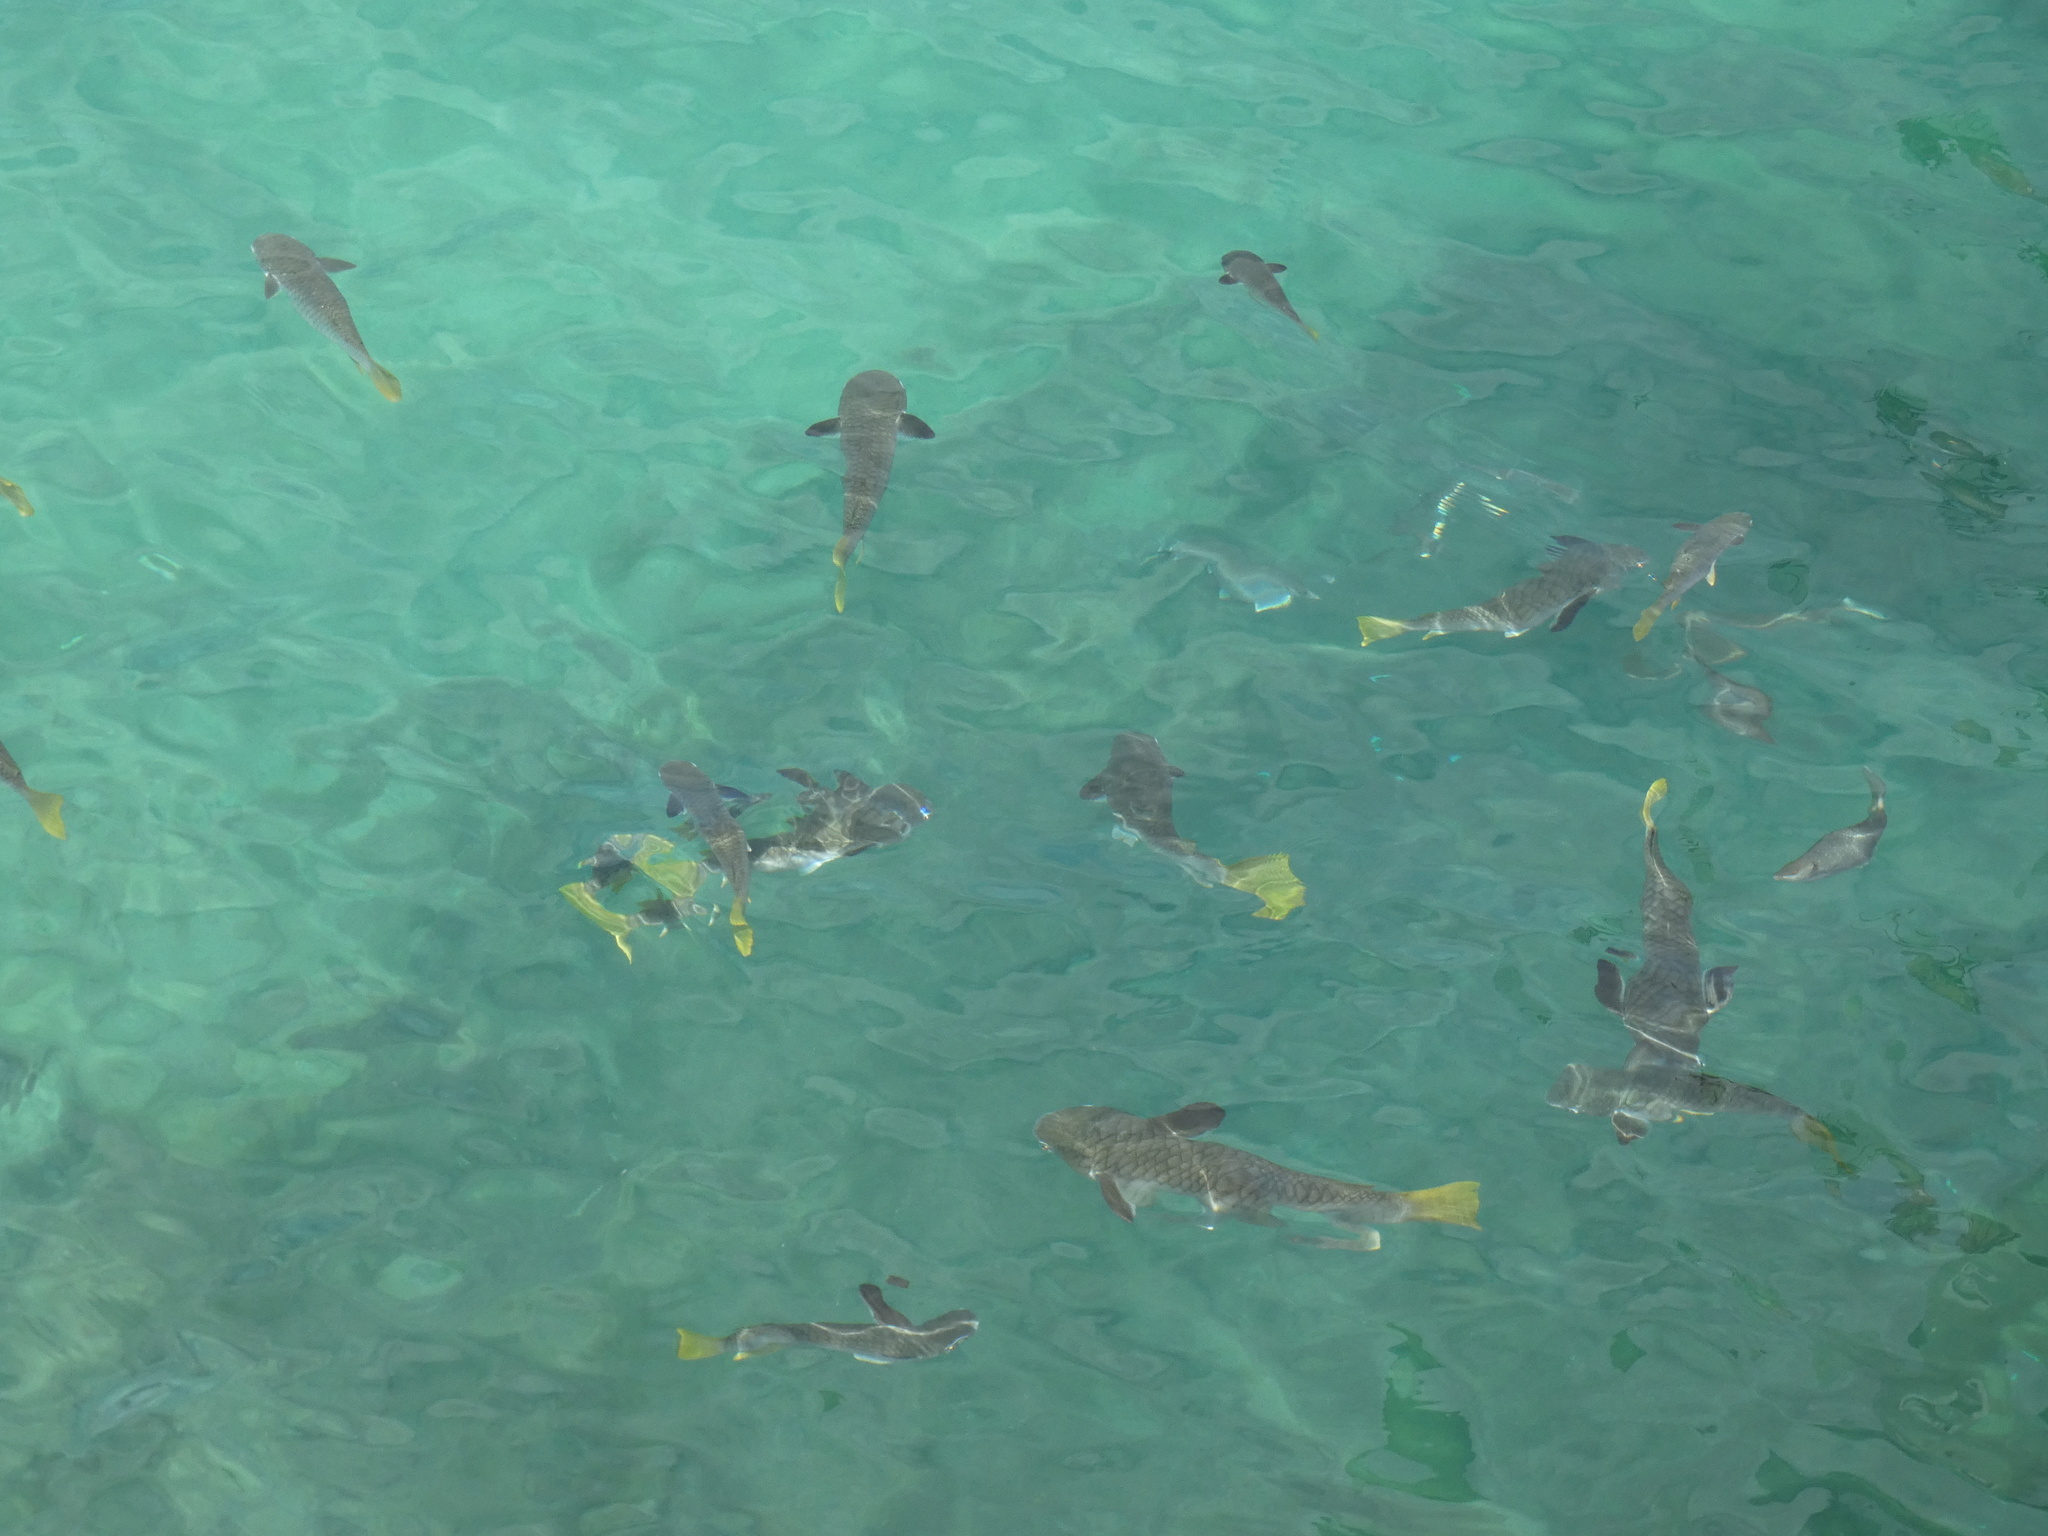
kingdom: Animalia
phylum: Chordata
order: Mugiliformes
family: Mugilidae
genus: Ellochelon
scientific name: Ellochelon vaigiensis
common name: Squaretail mullet
